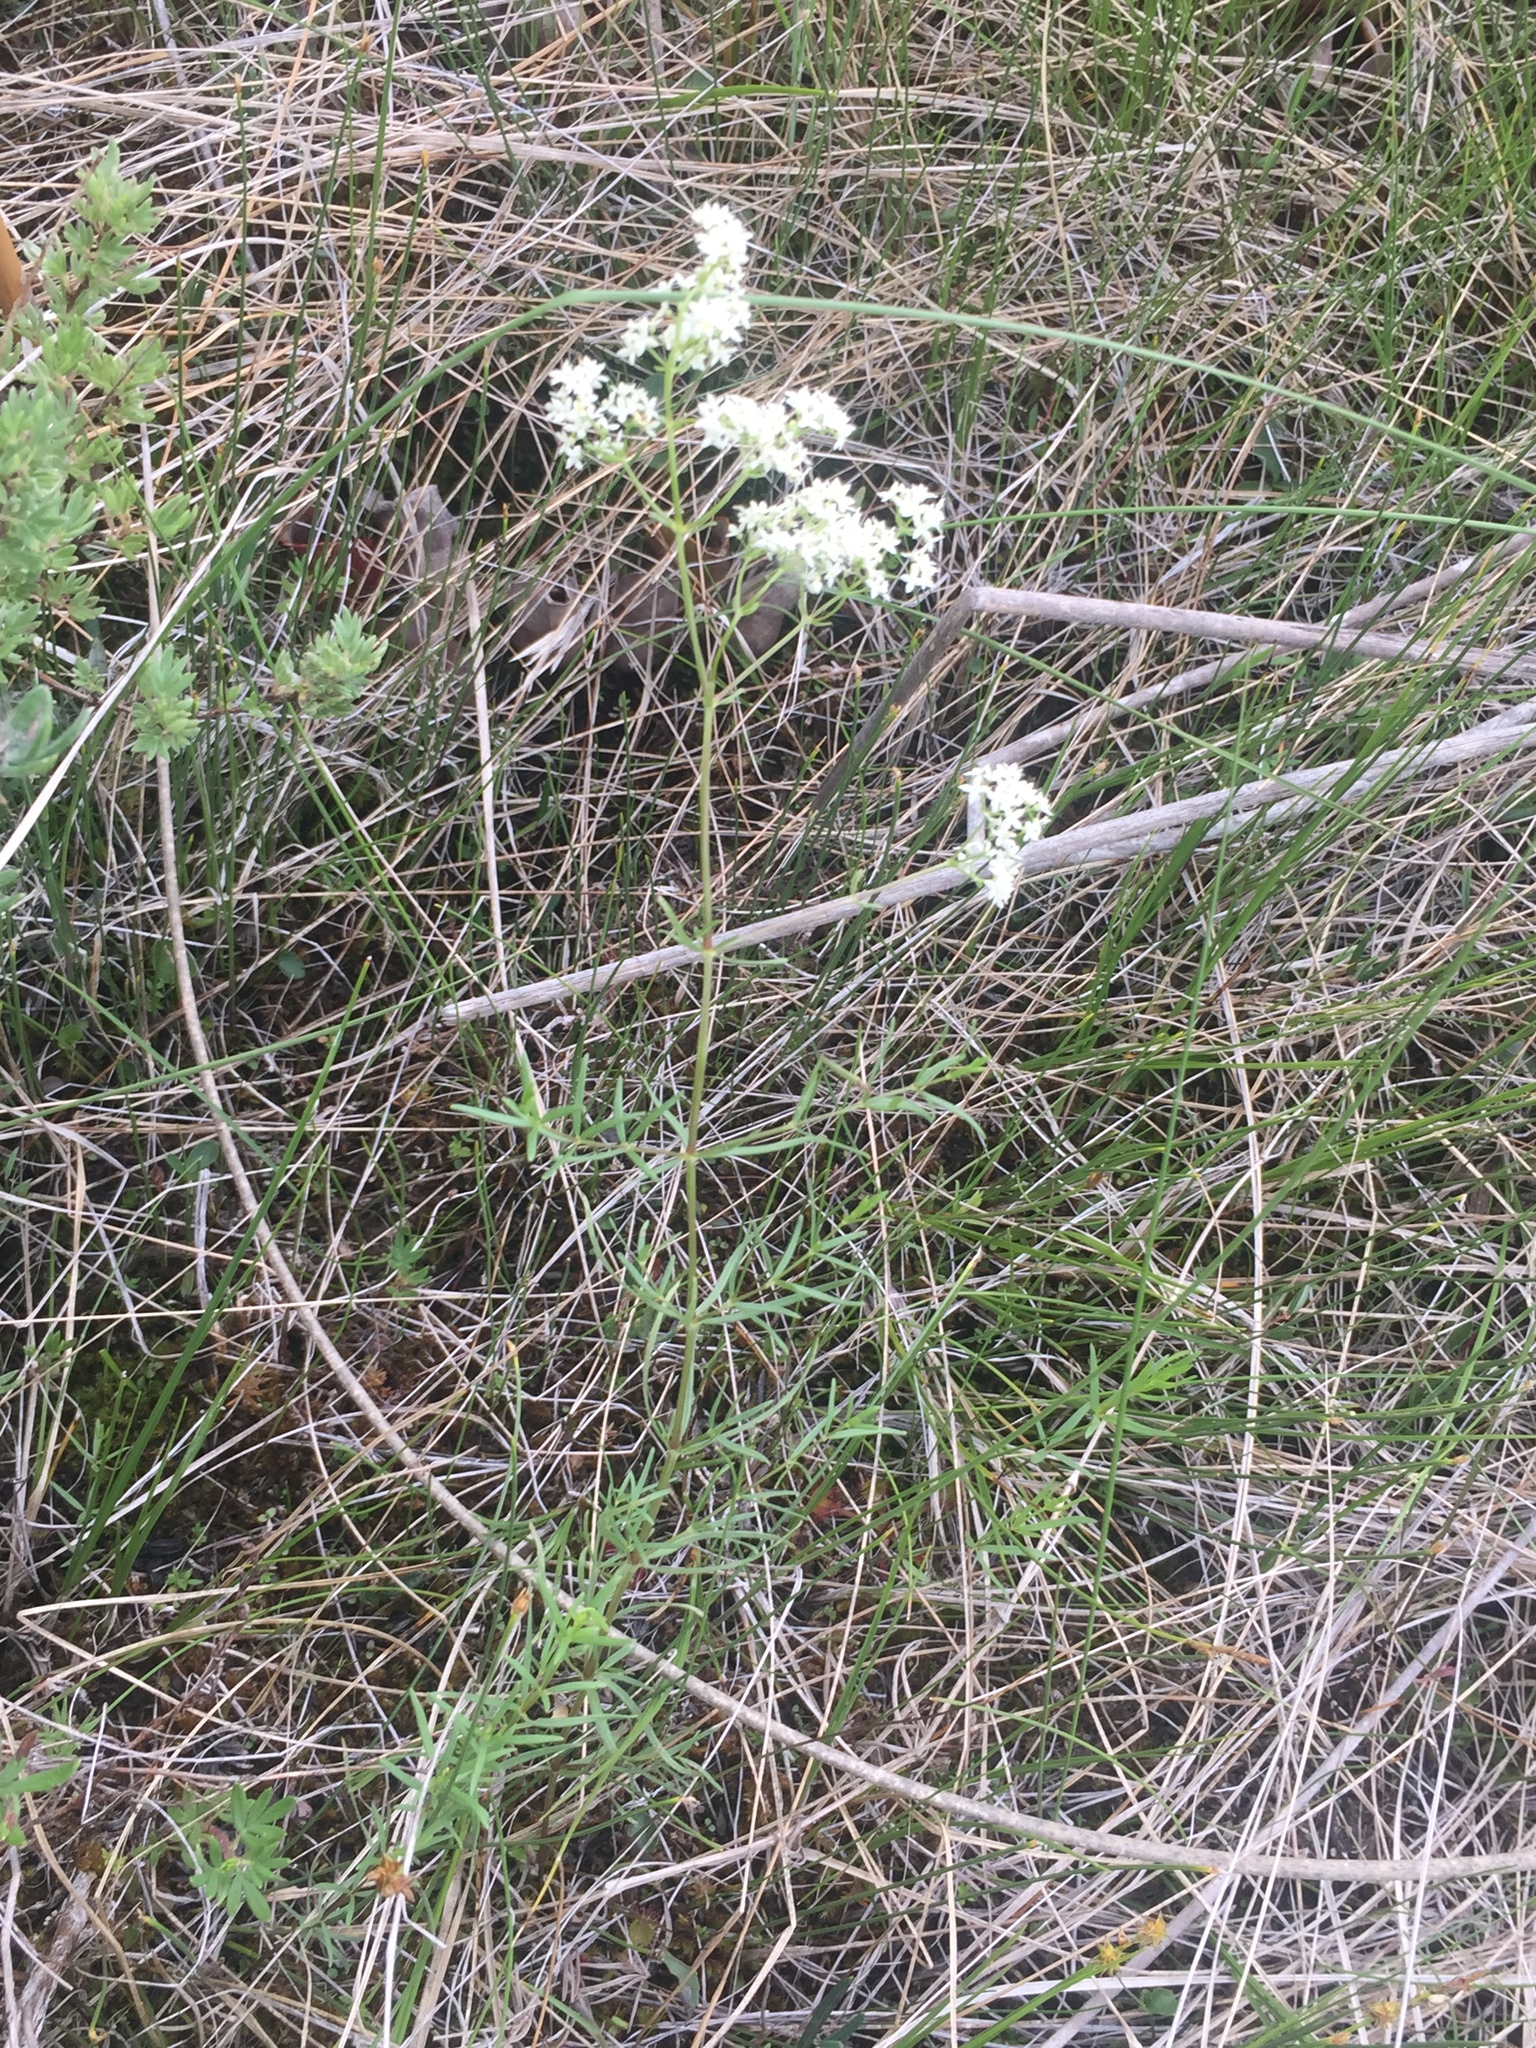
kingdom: Plantae
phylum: Tracheophyta
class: Magnoliopsida
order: Gentianales
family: Rubiaceae
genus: Galium
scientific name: Galium boreale
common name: Northern bedstraw
